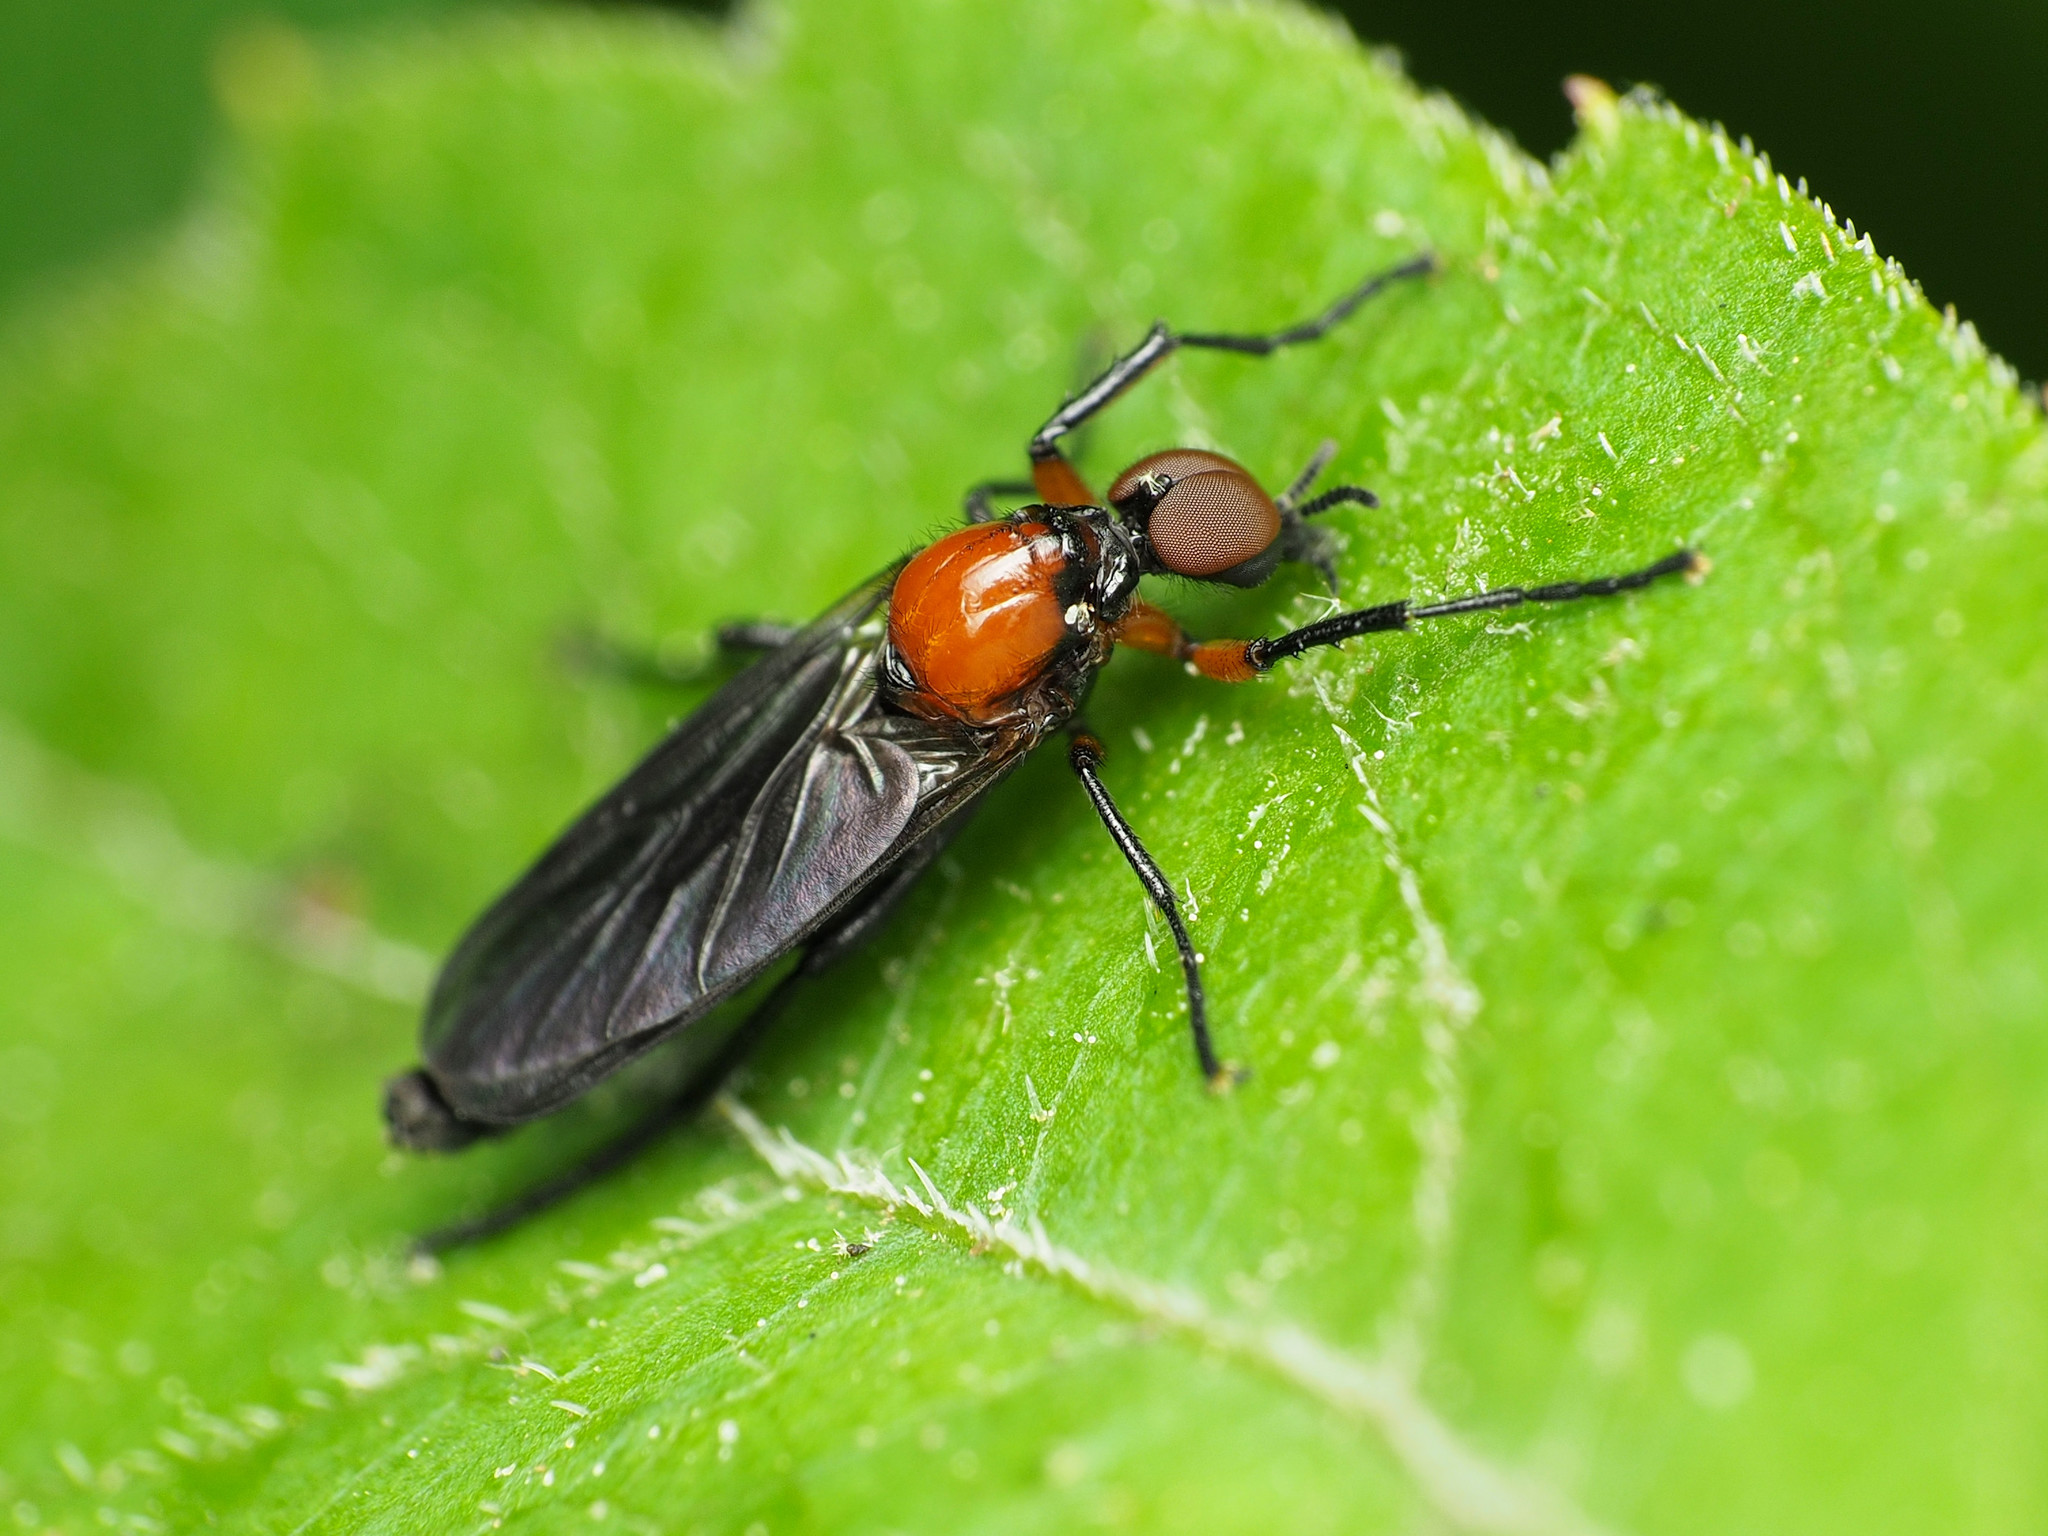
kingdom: Animalia
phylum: Arthropoda
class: Insecta
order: Diptera
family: Bibionidae
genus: Dilophus
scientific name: Dilophus spinipes
